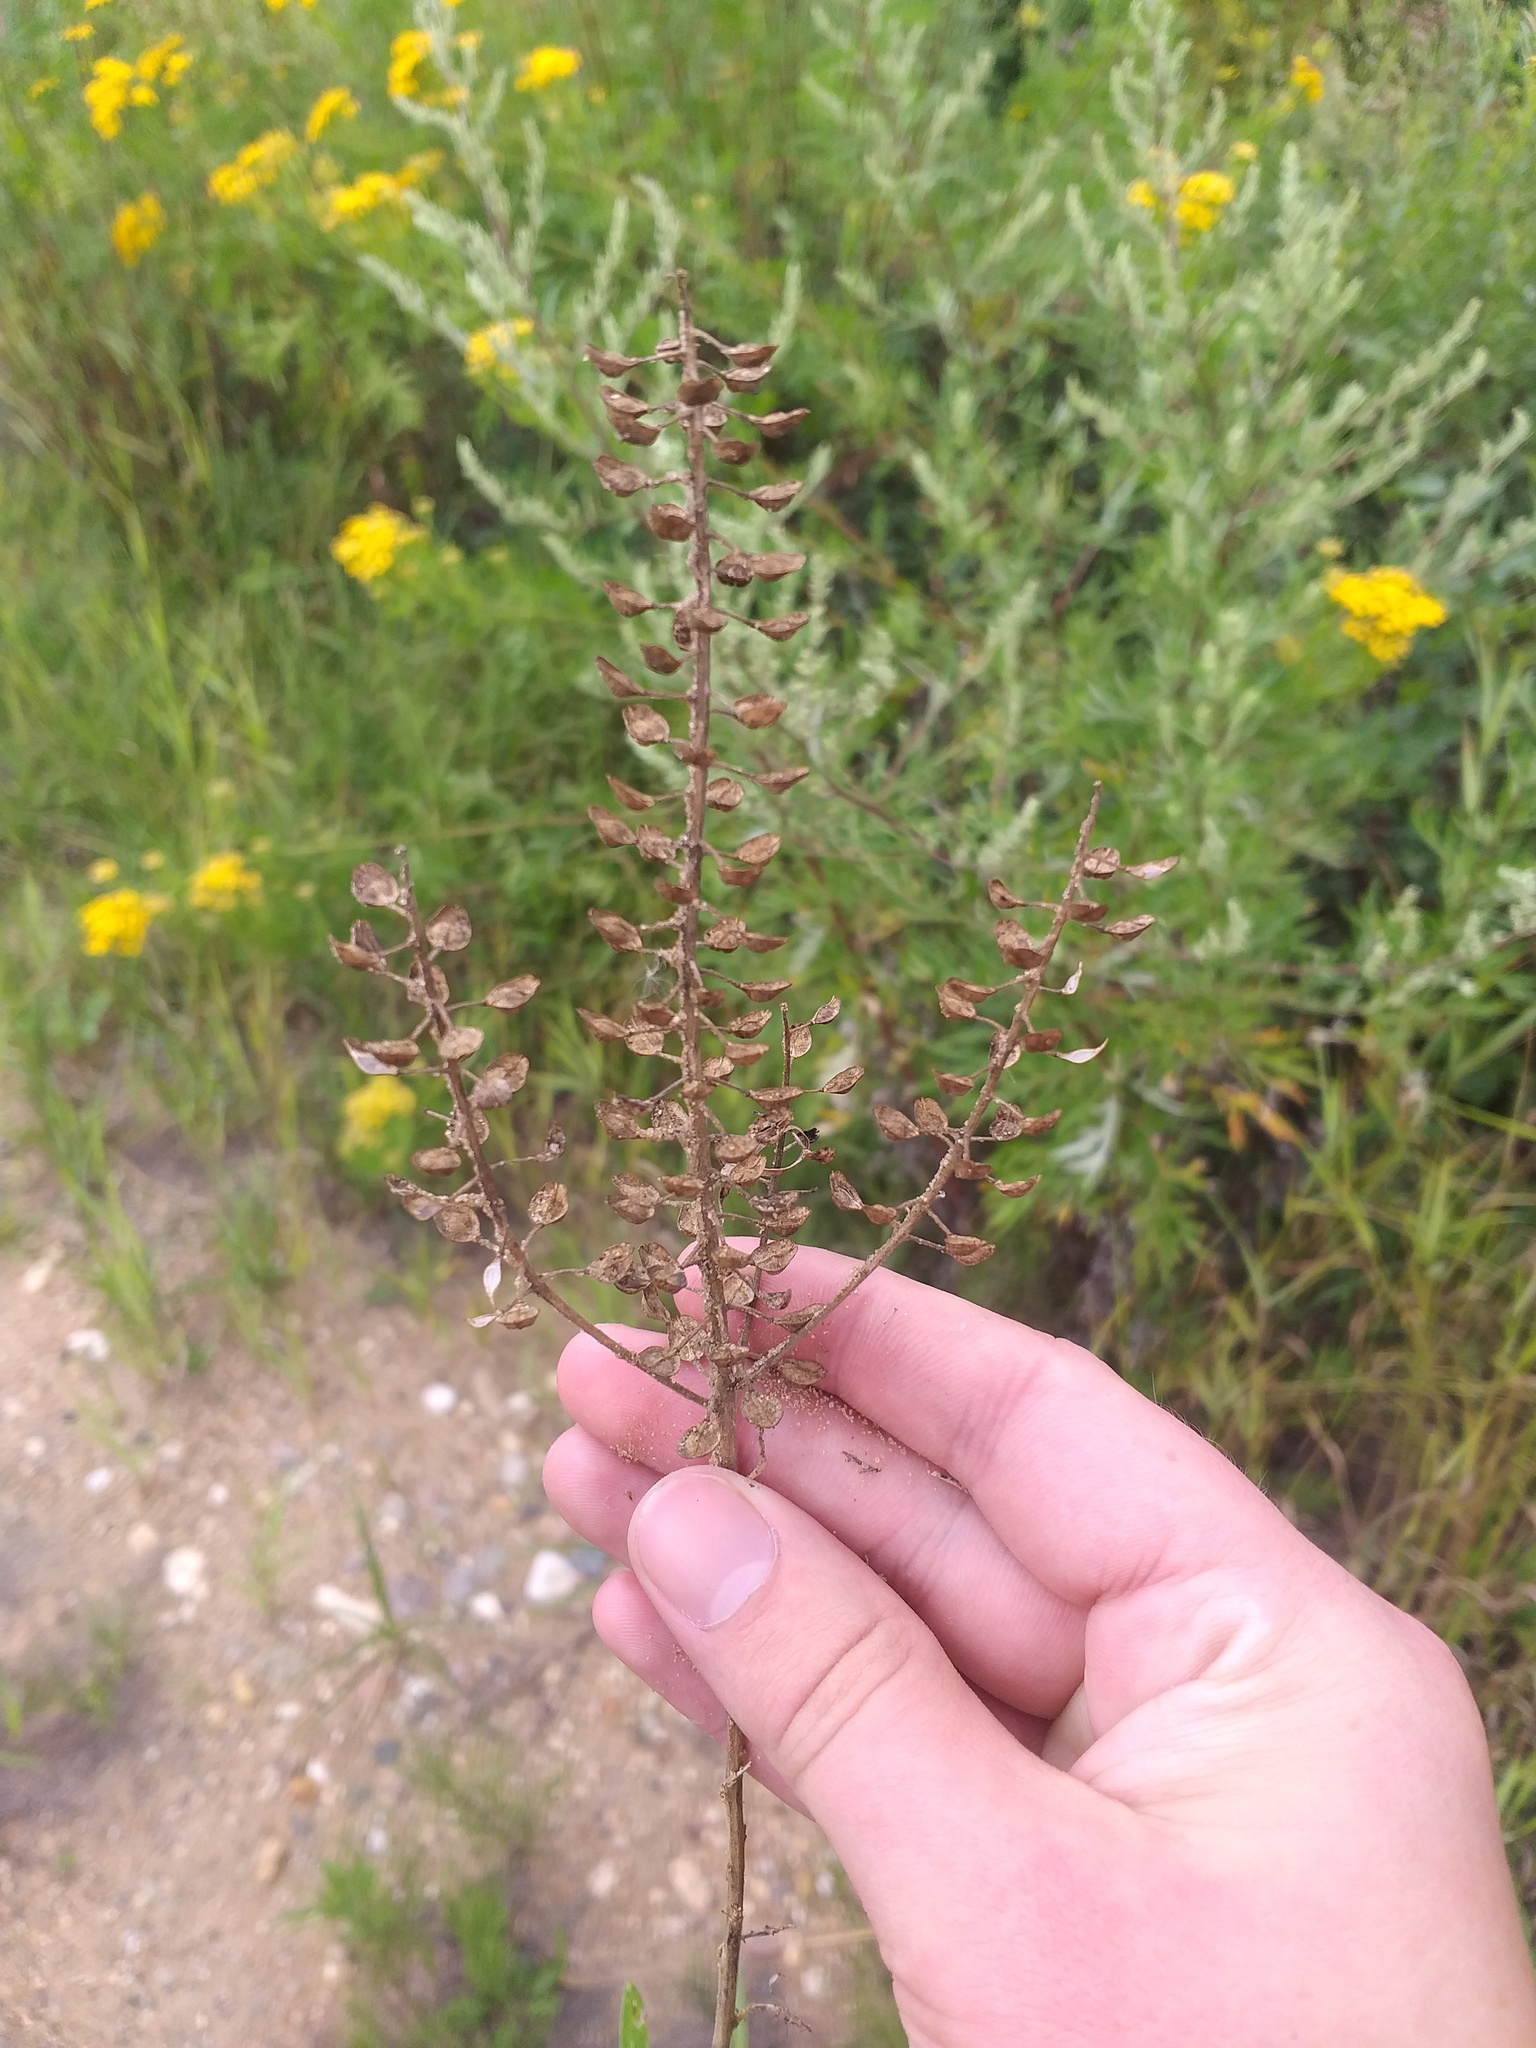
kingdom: Plantae
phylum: Tracheophyta
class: Magnoliopsida
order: Brassicales
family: Brassicaceae
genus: Lepidium
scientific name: Lepidium campestre
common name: Field pepperwort
